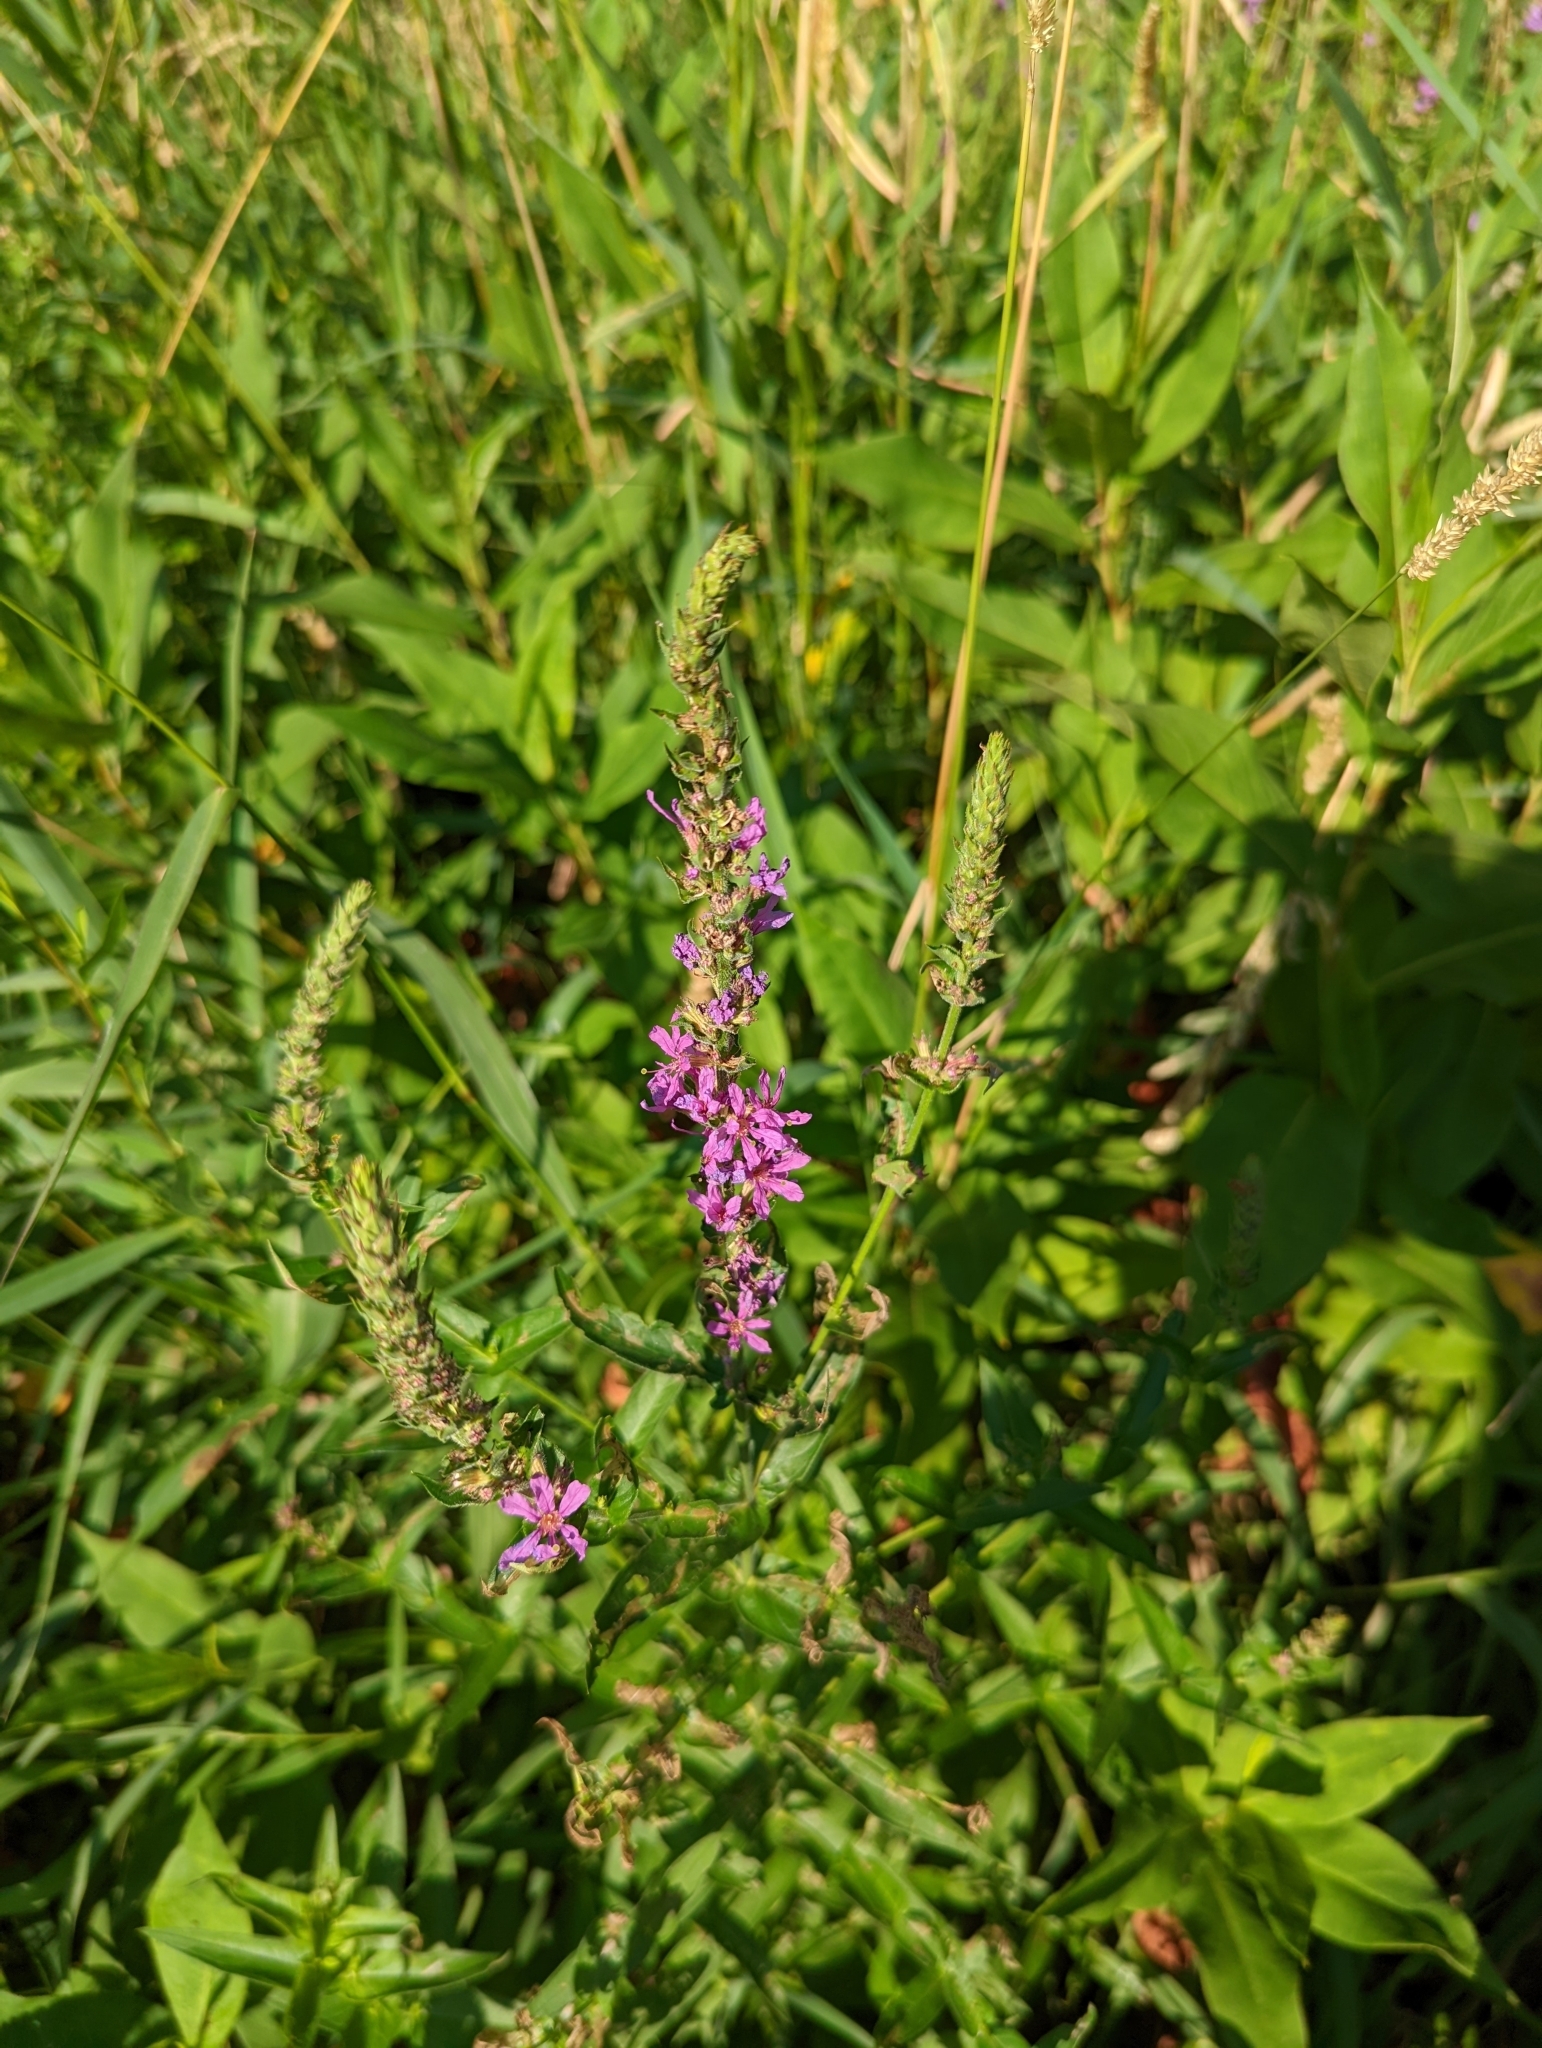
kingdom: Plantae
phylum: Tracheophyta
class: Magnoliopsida
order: Myrtales
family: Lythraceae
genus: Lythrum
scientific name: Lythrum salicaria
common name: Purple loosestrife
